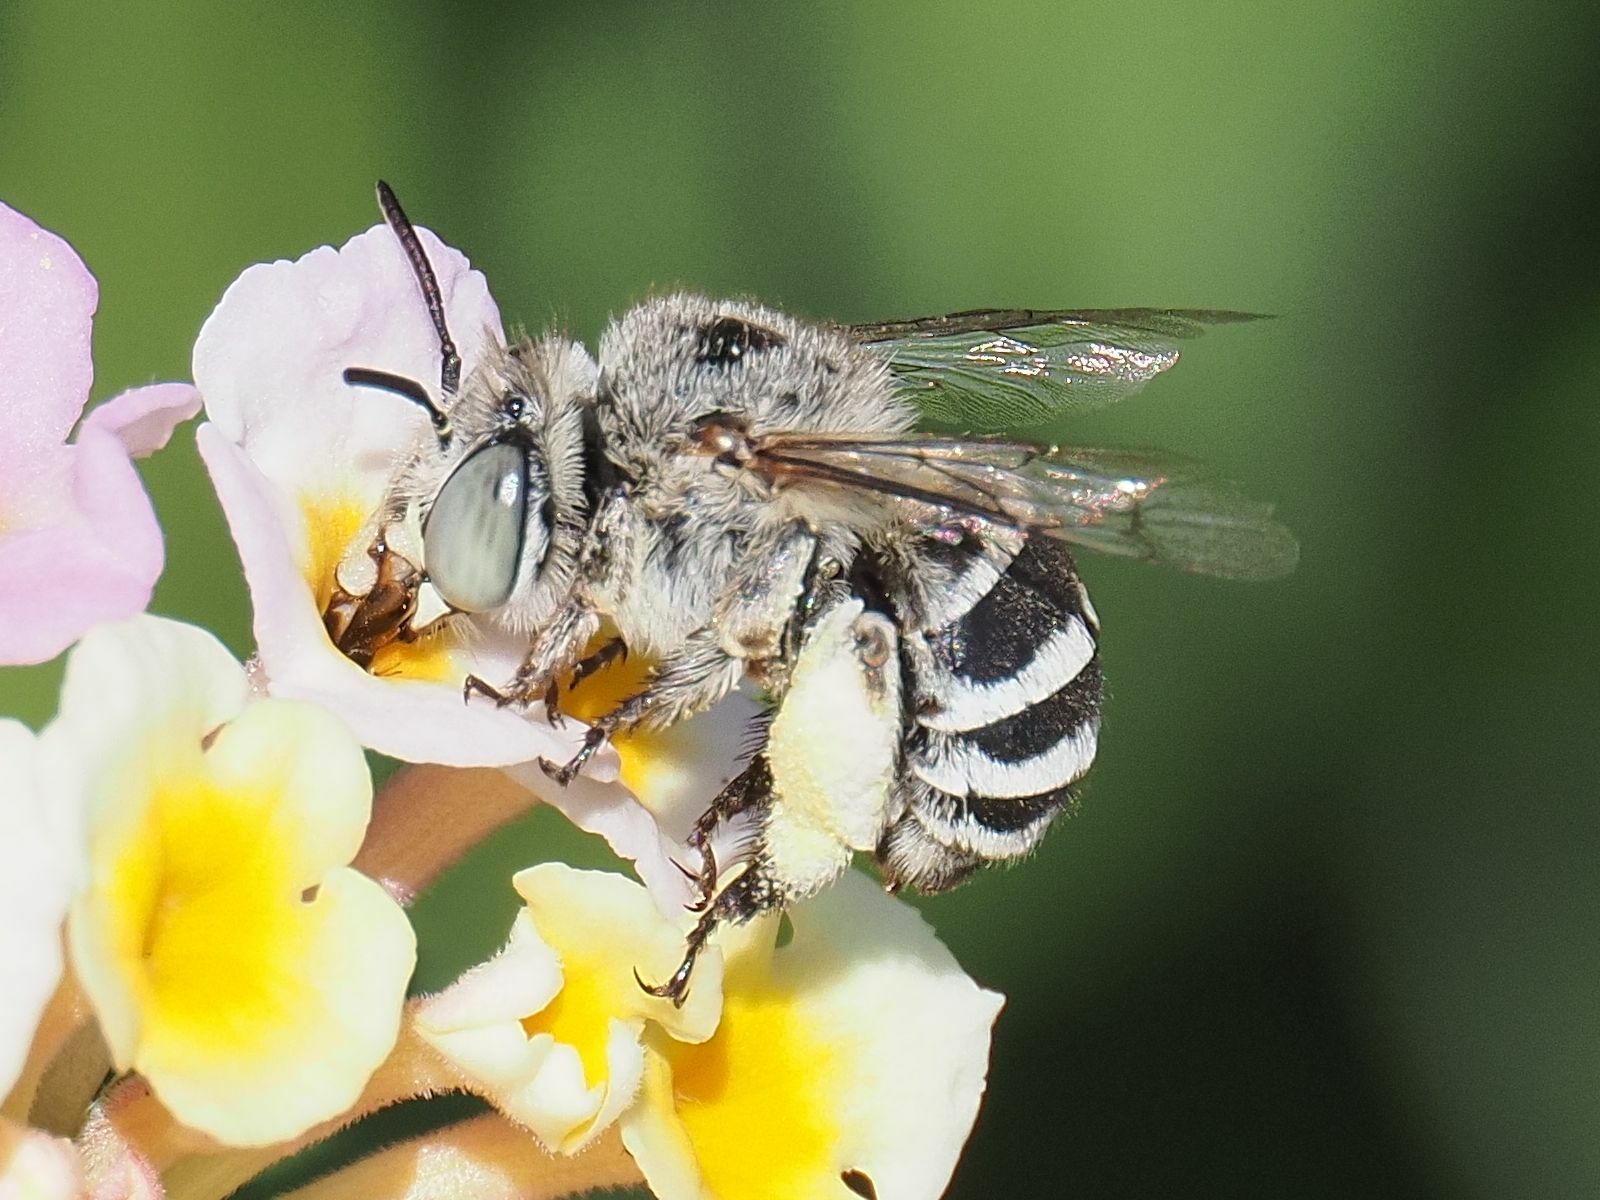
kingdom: Animalia
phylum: Arthropoda
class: Insecta
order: Hymenoptera
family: Apidae
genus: Amegilla
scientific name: Amegilla albigena
